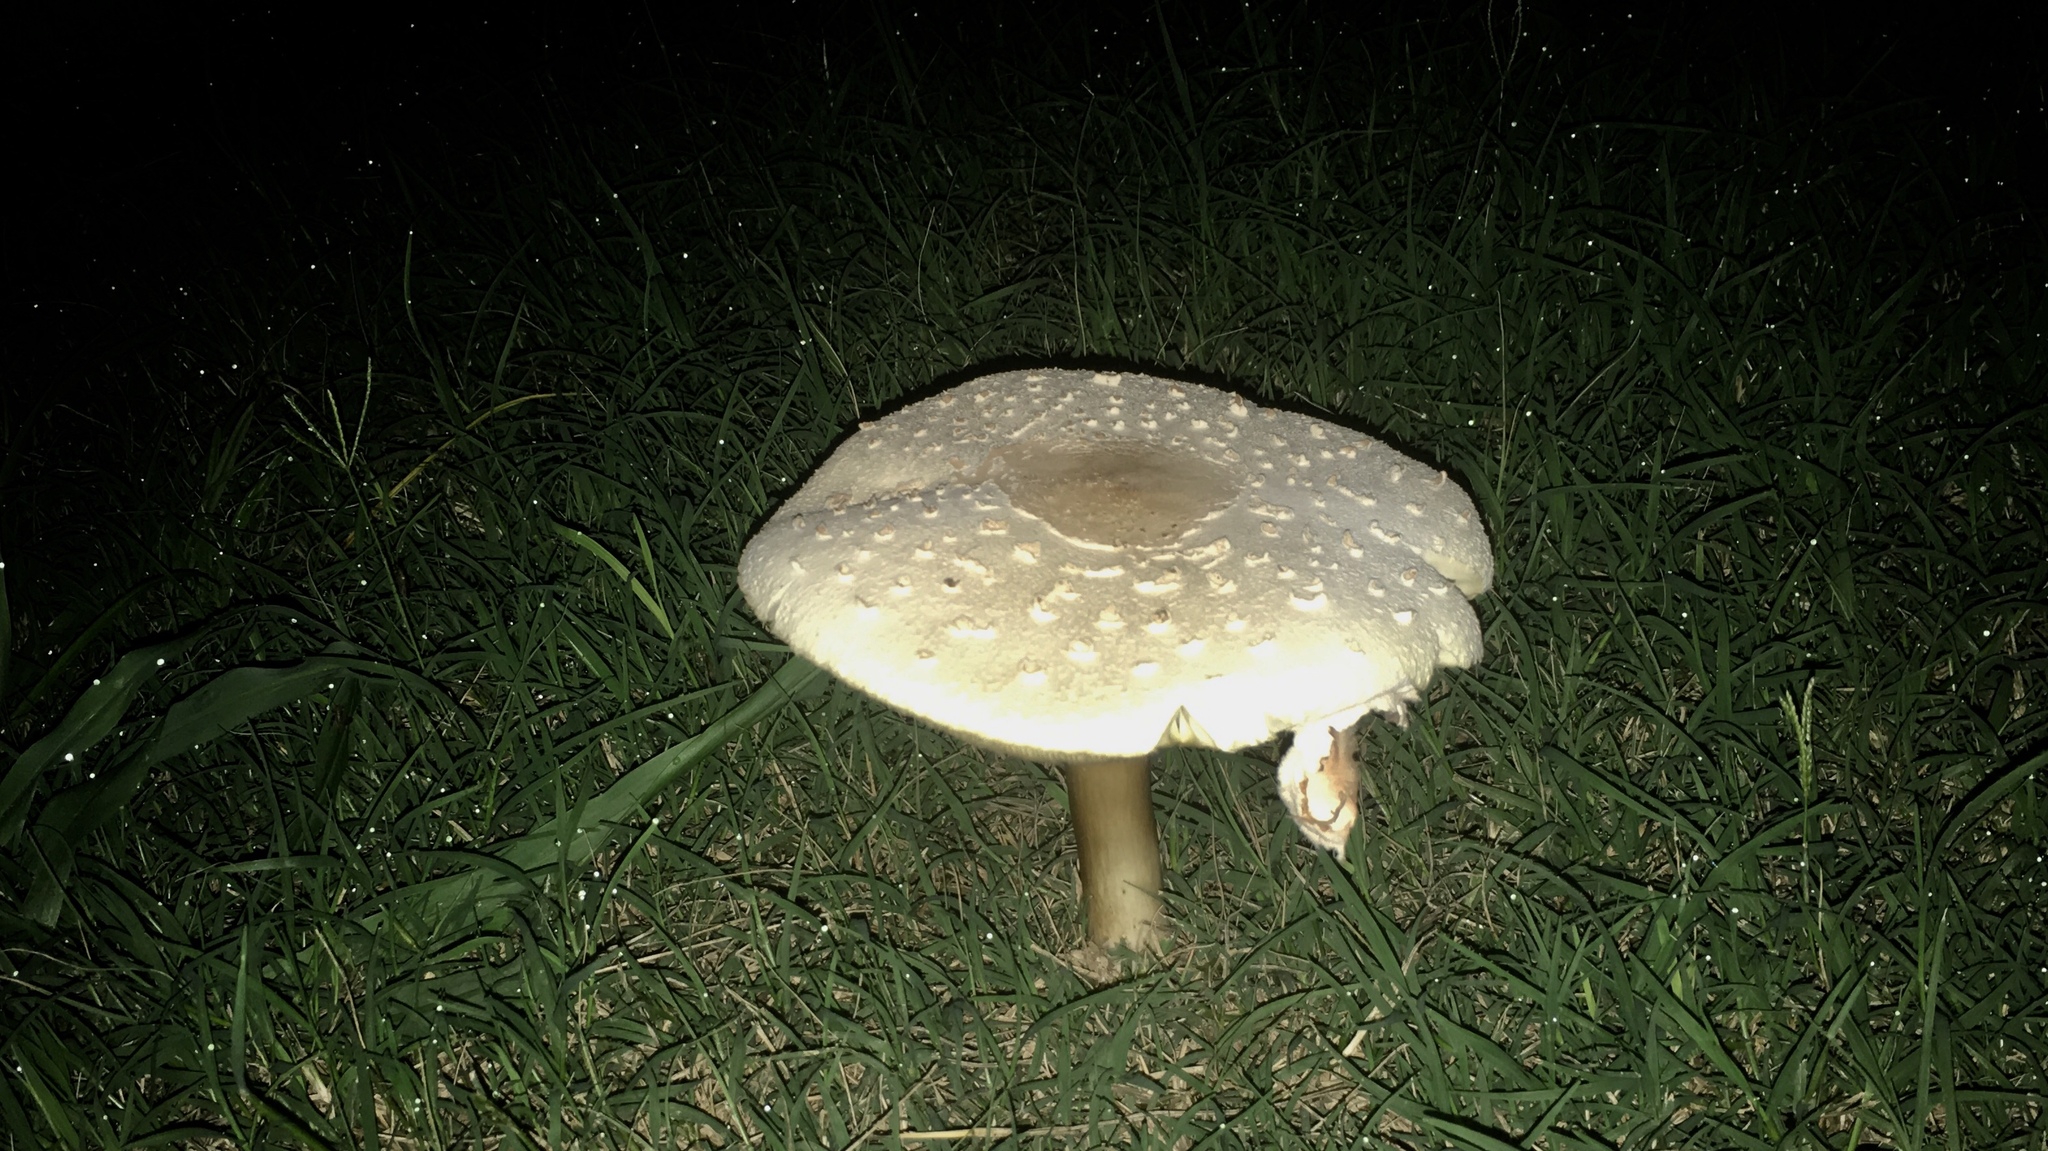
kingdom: Fungi
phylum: Basidiomycota
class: Agaricomycetes
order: Agaricales
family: Agaricaceae
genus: Chlorophyllum
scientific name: Chlorophyllum molybdites
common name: False parasol
